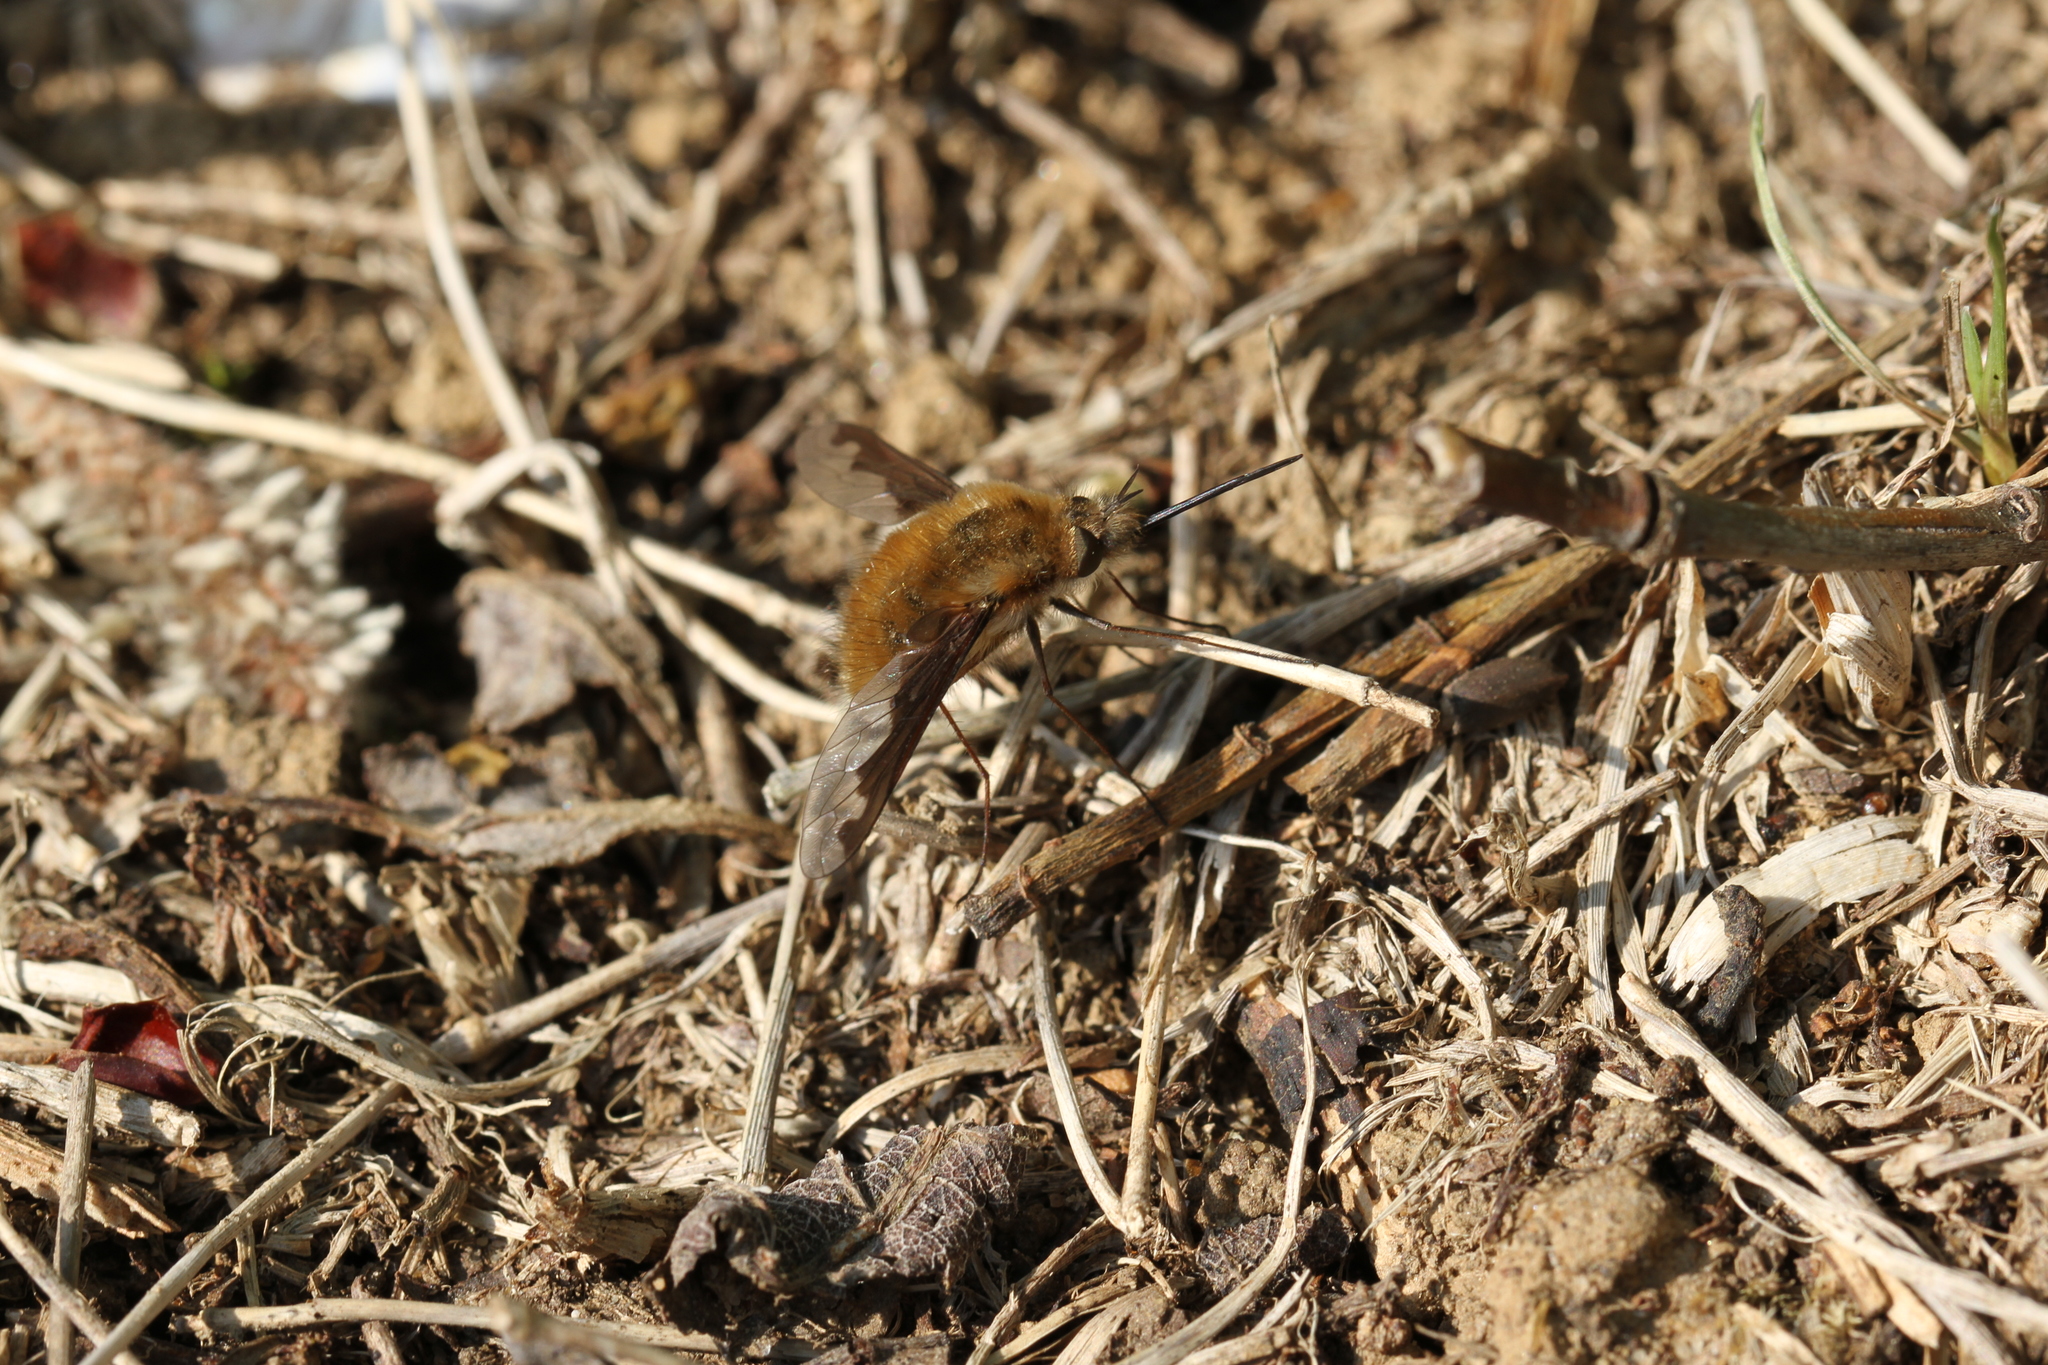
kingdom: Animalia
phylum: Arthropoda
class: Insecta
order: Diptera
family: Bombyliidae
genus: Bombylius
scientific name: Bombylius major
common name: Bee fly
